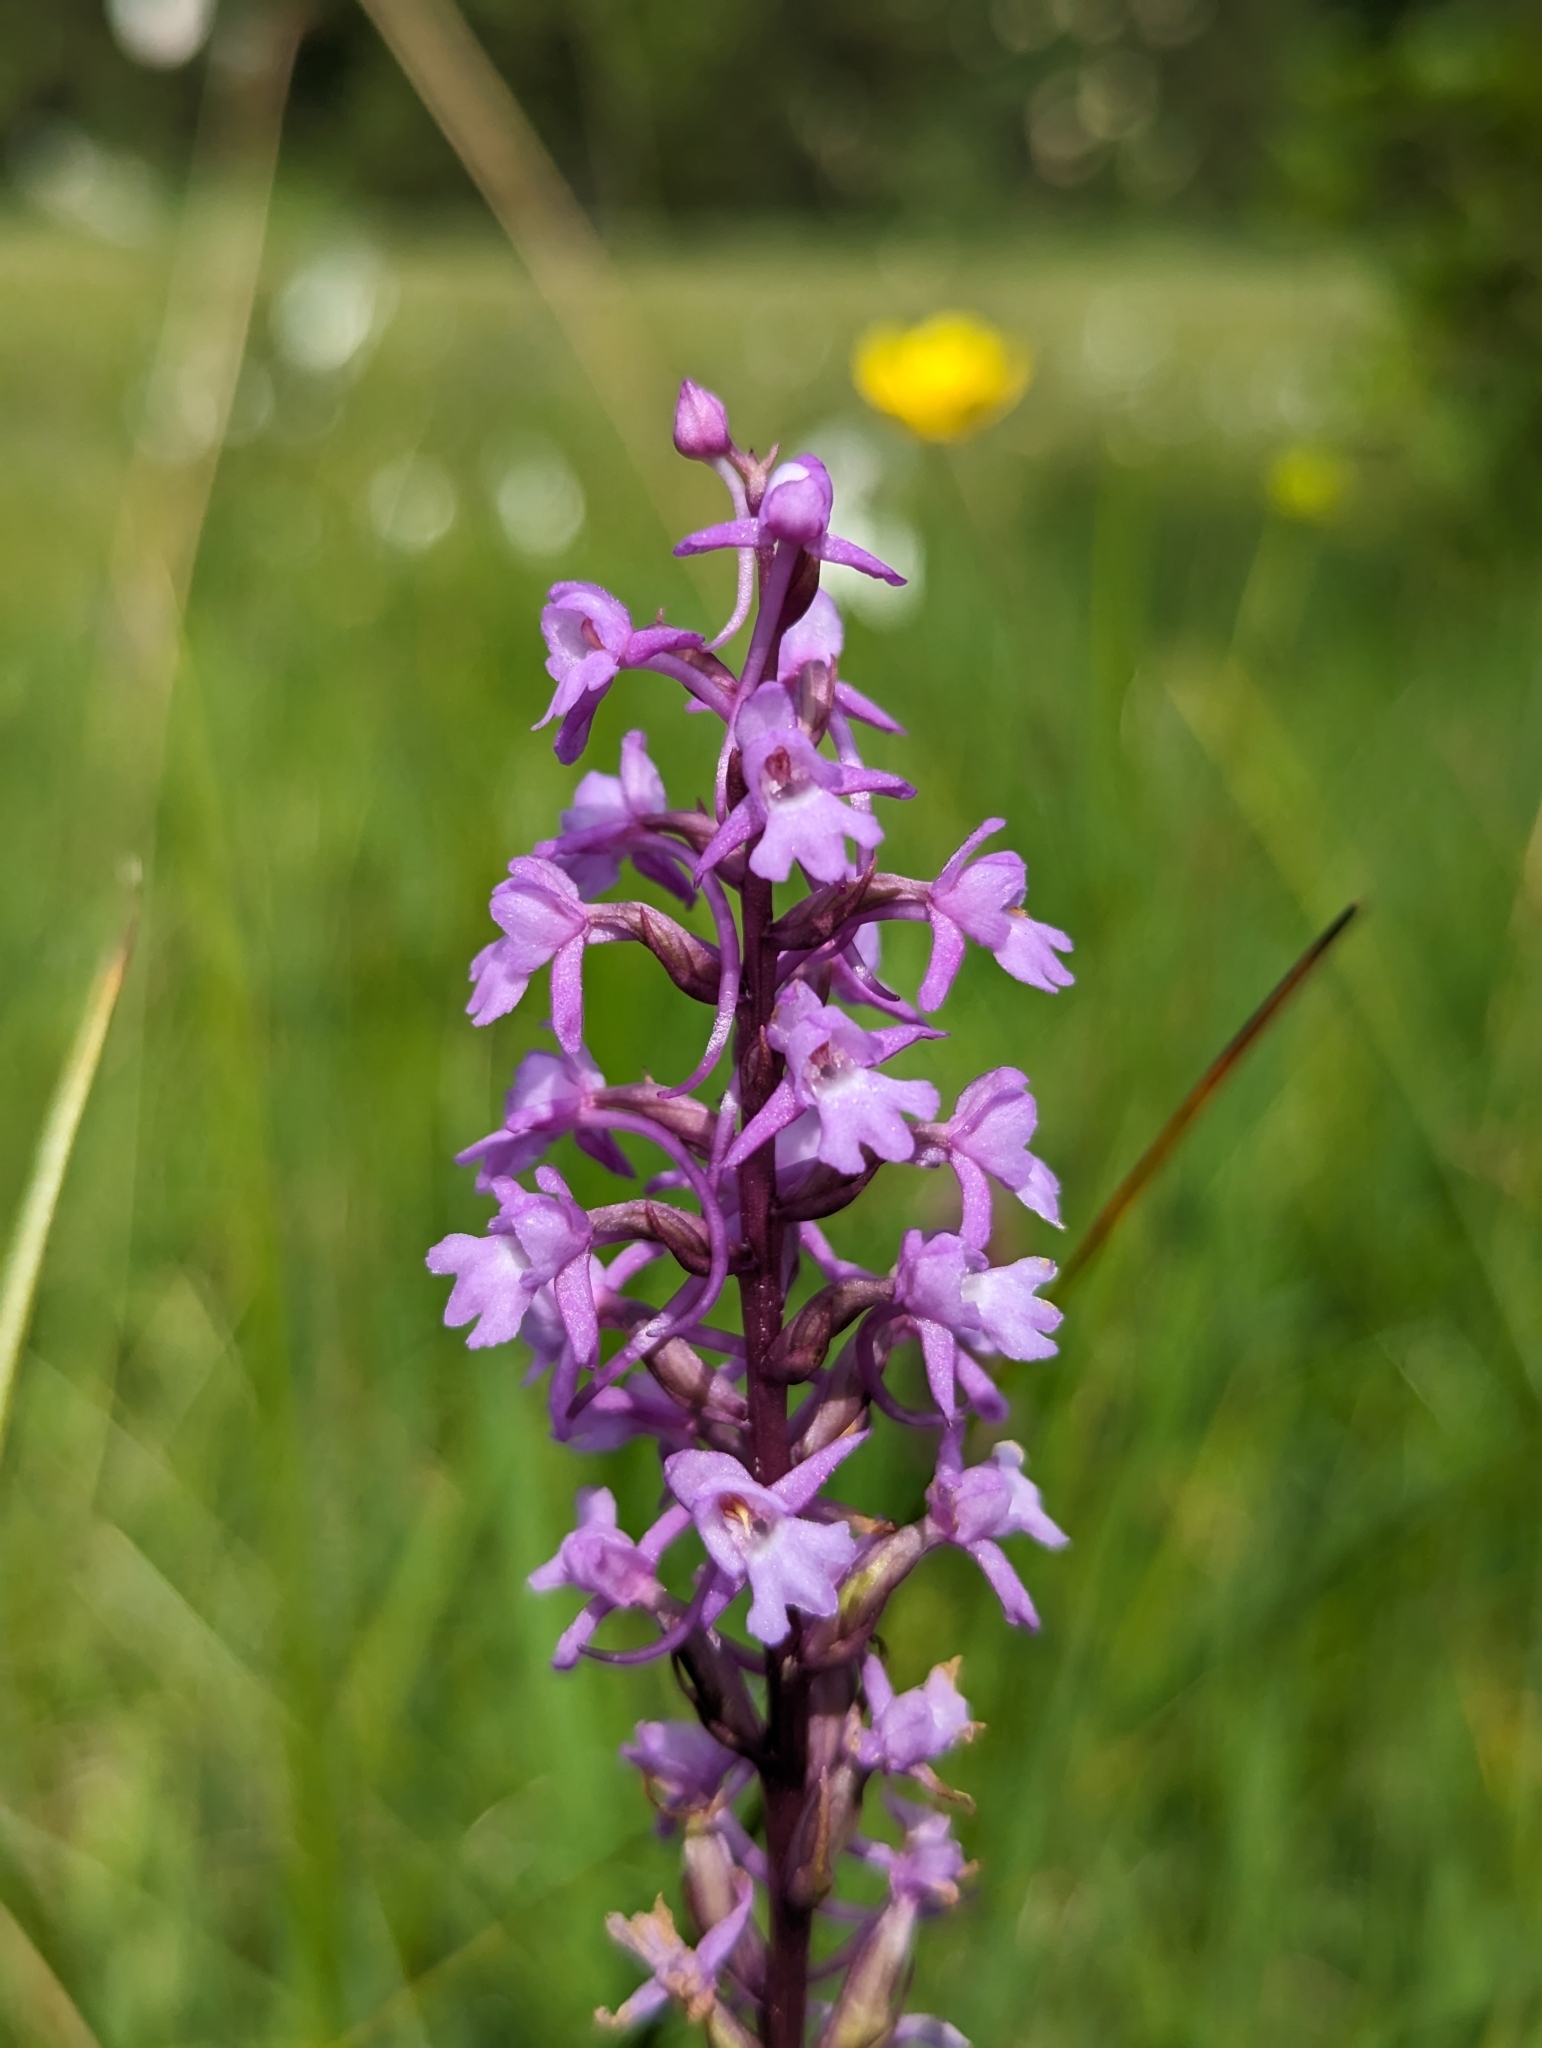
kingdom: Plantae
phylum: Tracheophyta
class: Liliopsida
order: Asparagales
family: Orchidaceae
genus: Gymnadenia
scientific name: Gymnadenia conopsea
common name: Fragrant orchid
